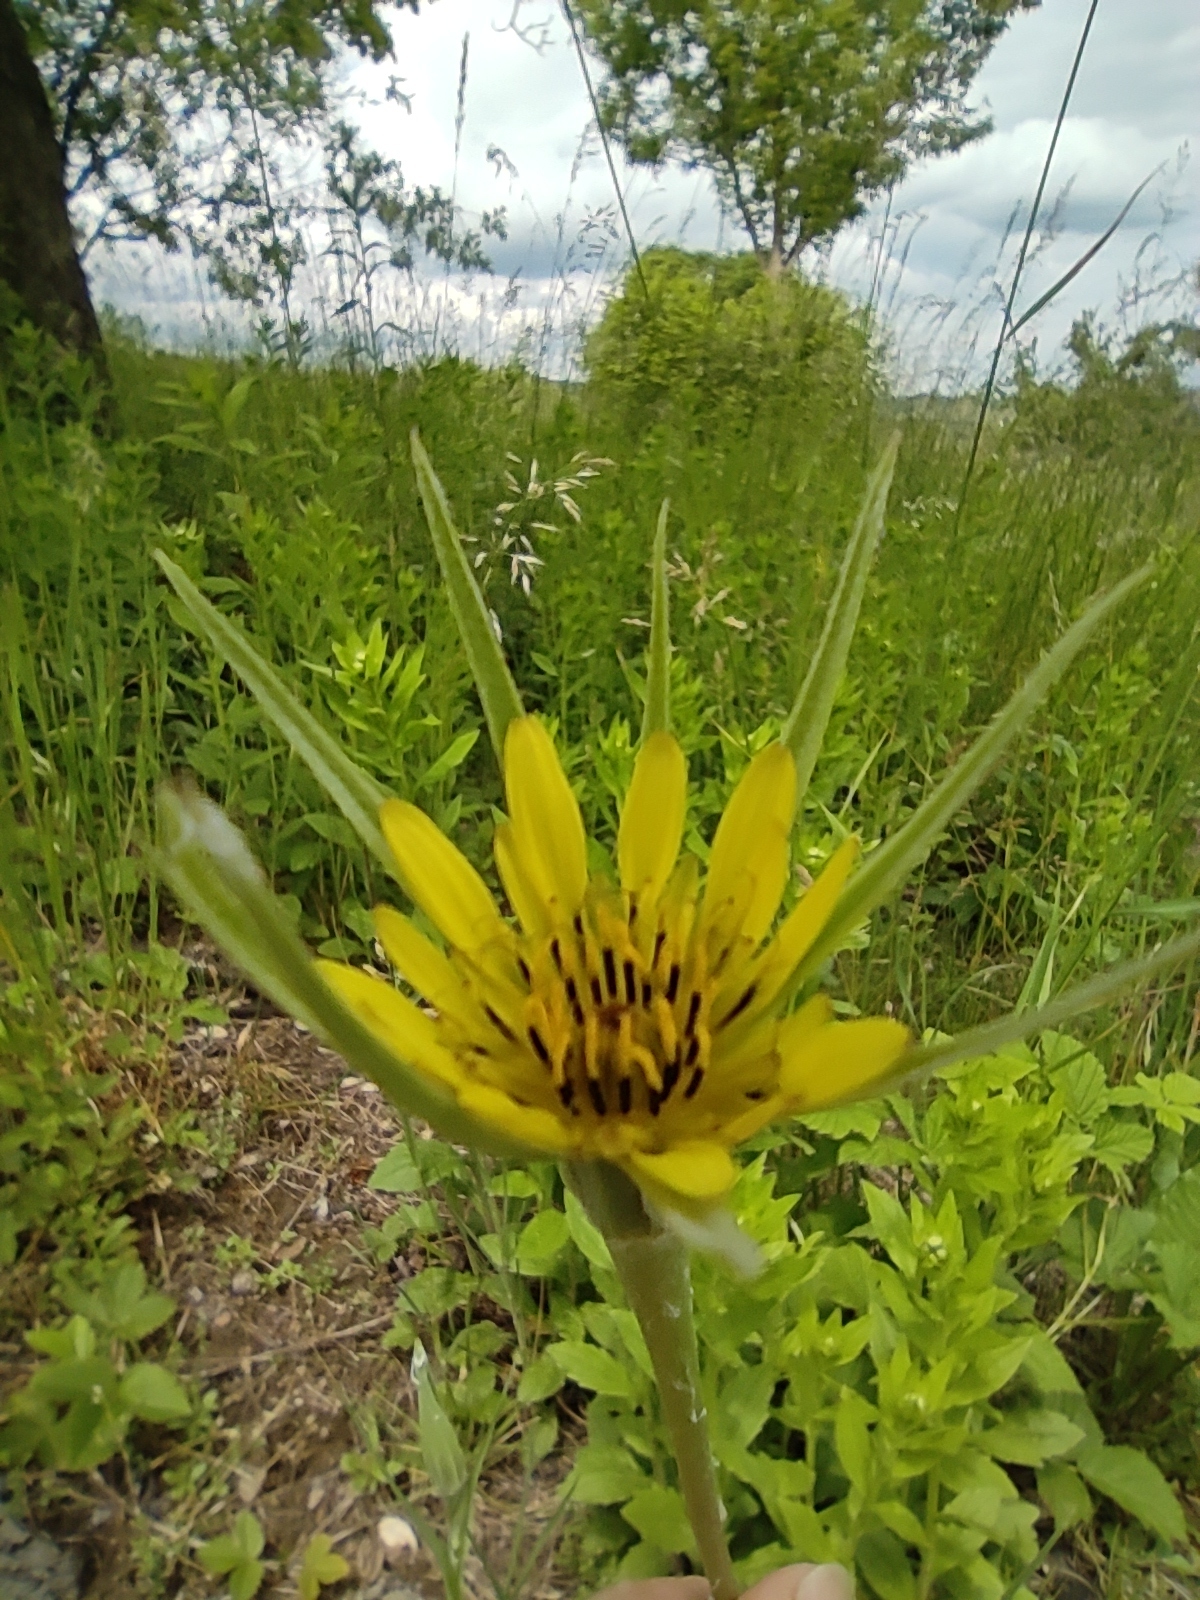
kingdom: Plantae
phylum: Tracheophyta
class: Magnoliopsida
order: Asterales
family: Asteraceae
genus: Tragopogon
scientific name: Tragopogon dubius
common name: Yellow salsify
